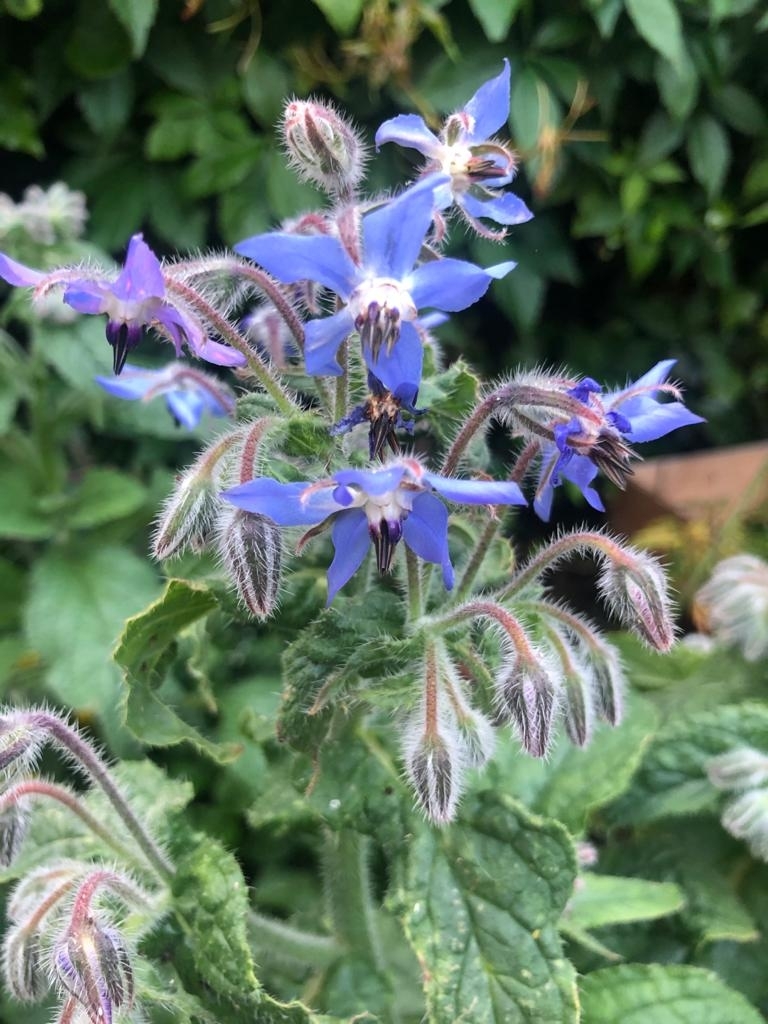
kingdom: Plantae
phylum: Tracheophyta
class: Magnoliopsida
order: Boraginales
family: Boraginaceae
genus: Borago
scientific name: Borago officinalis
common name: Borage
